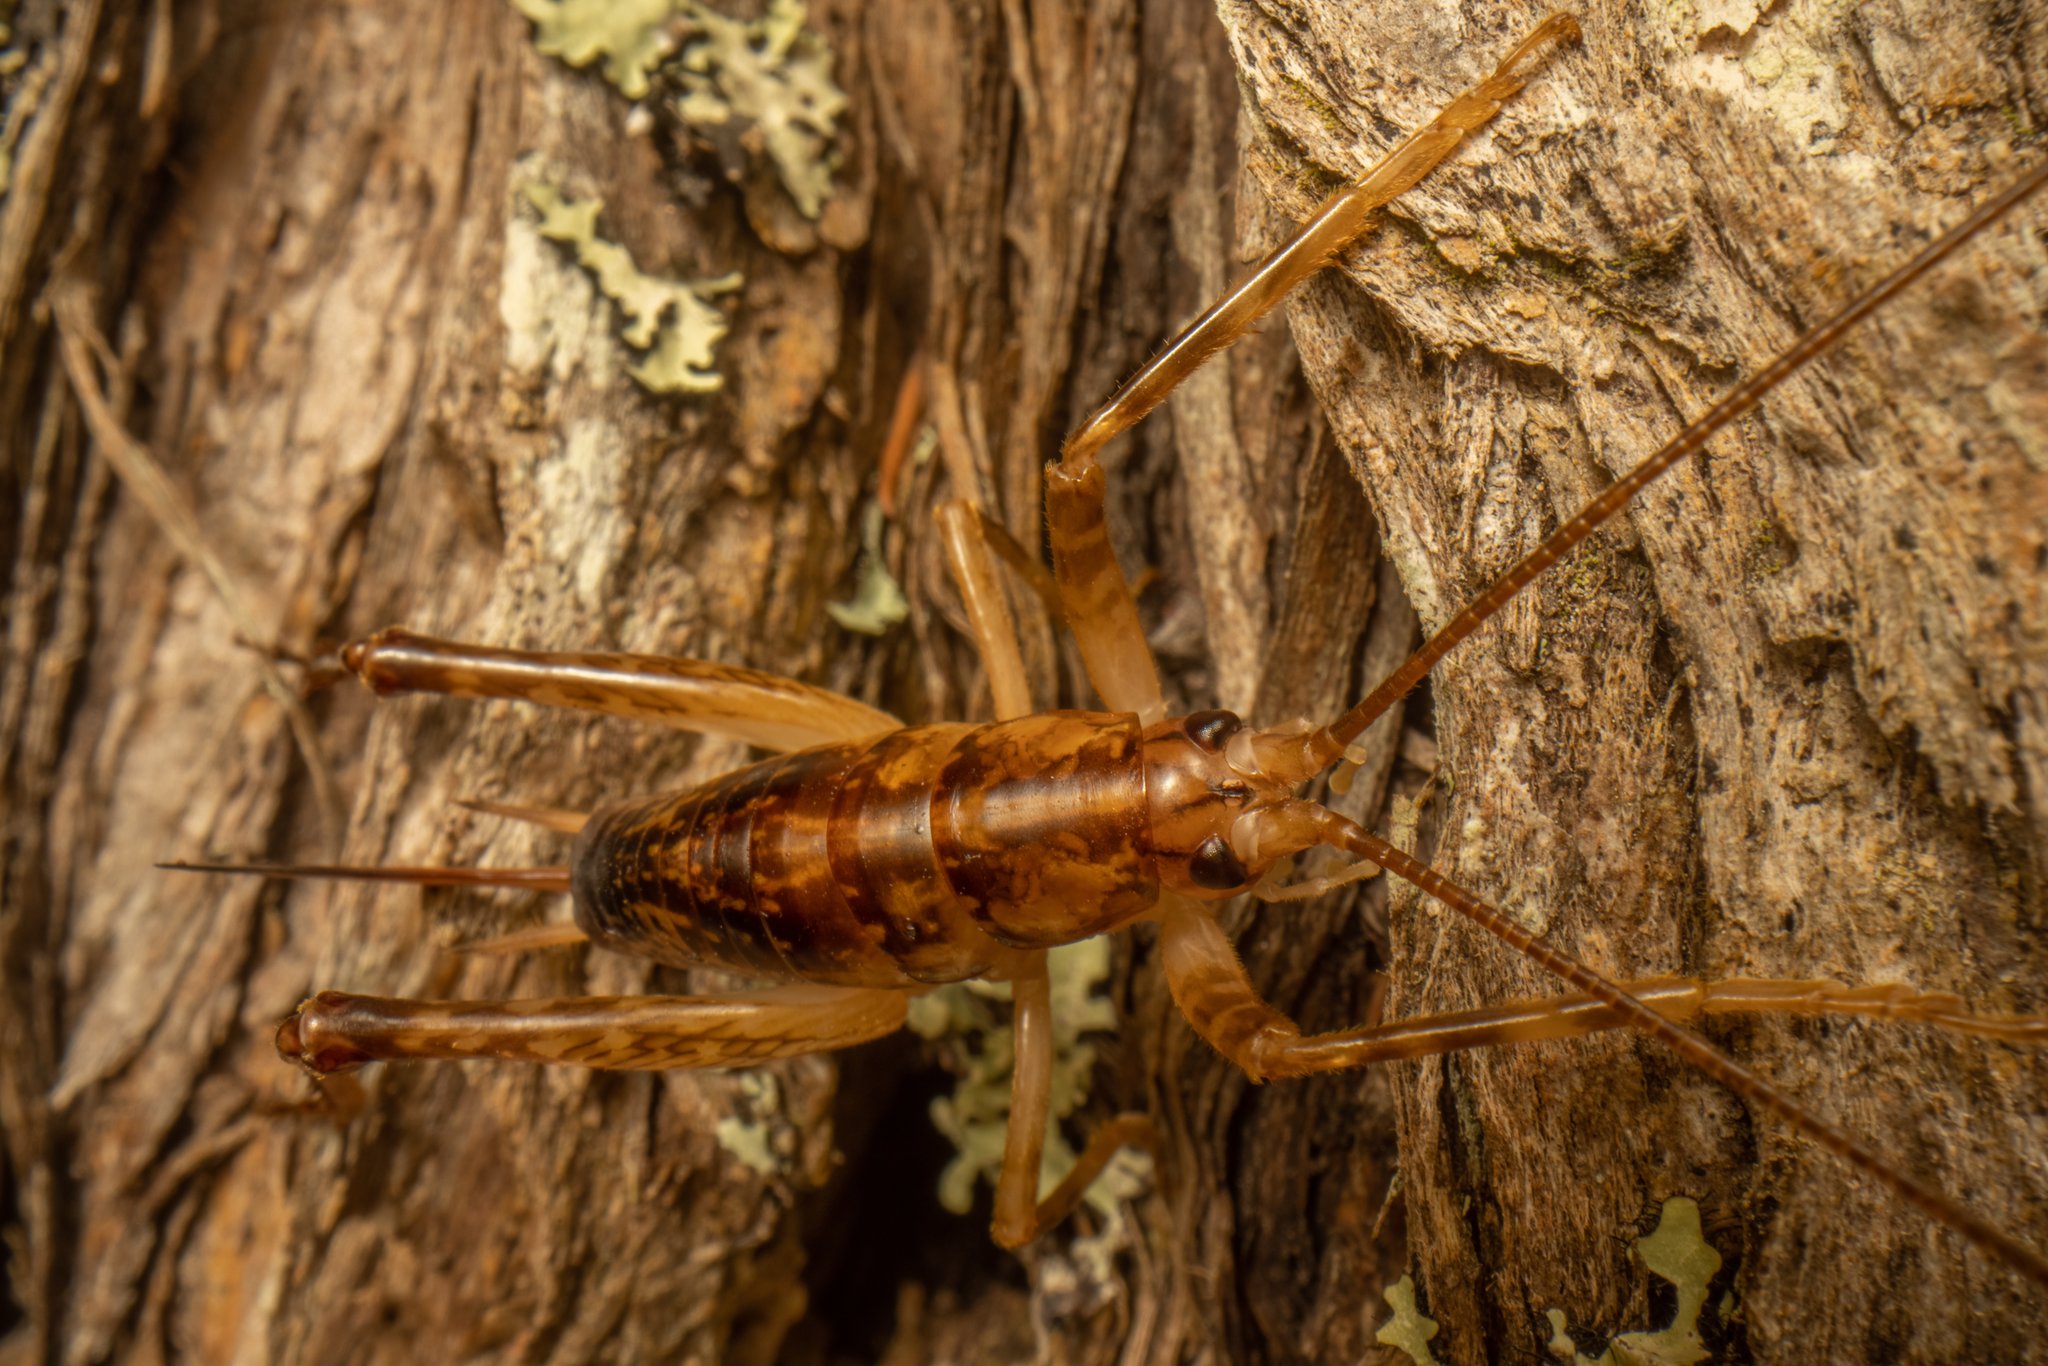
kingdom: Animalia
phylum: Arthropoda
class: Insecta
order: Orthoptera
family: Rhaphidophoridae
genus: Talitropsis
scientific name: Talitropsis sedilloti
